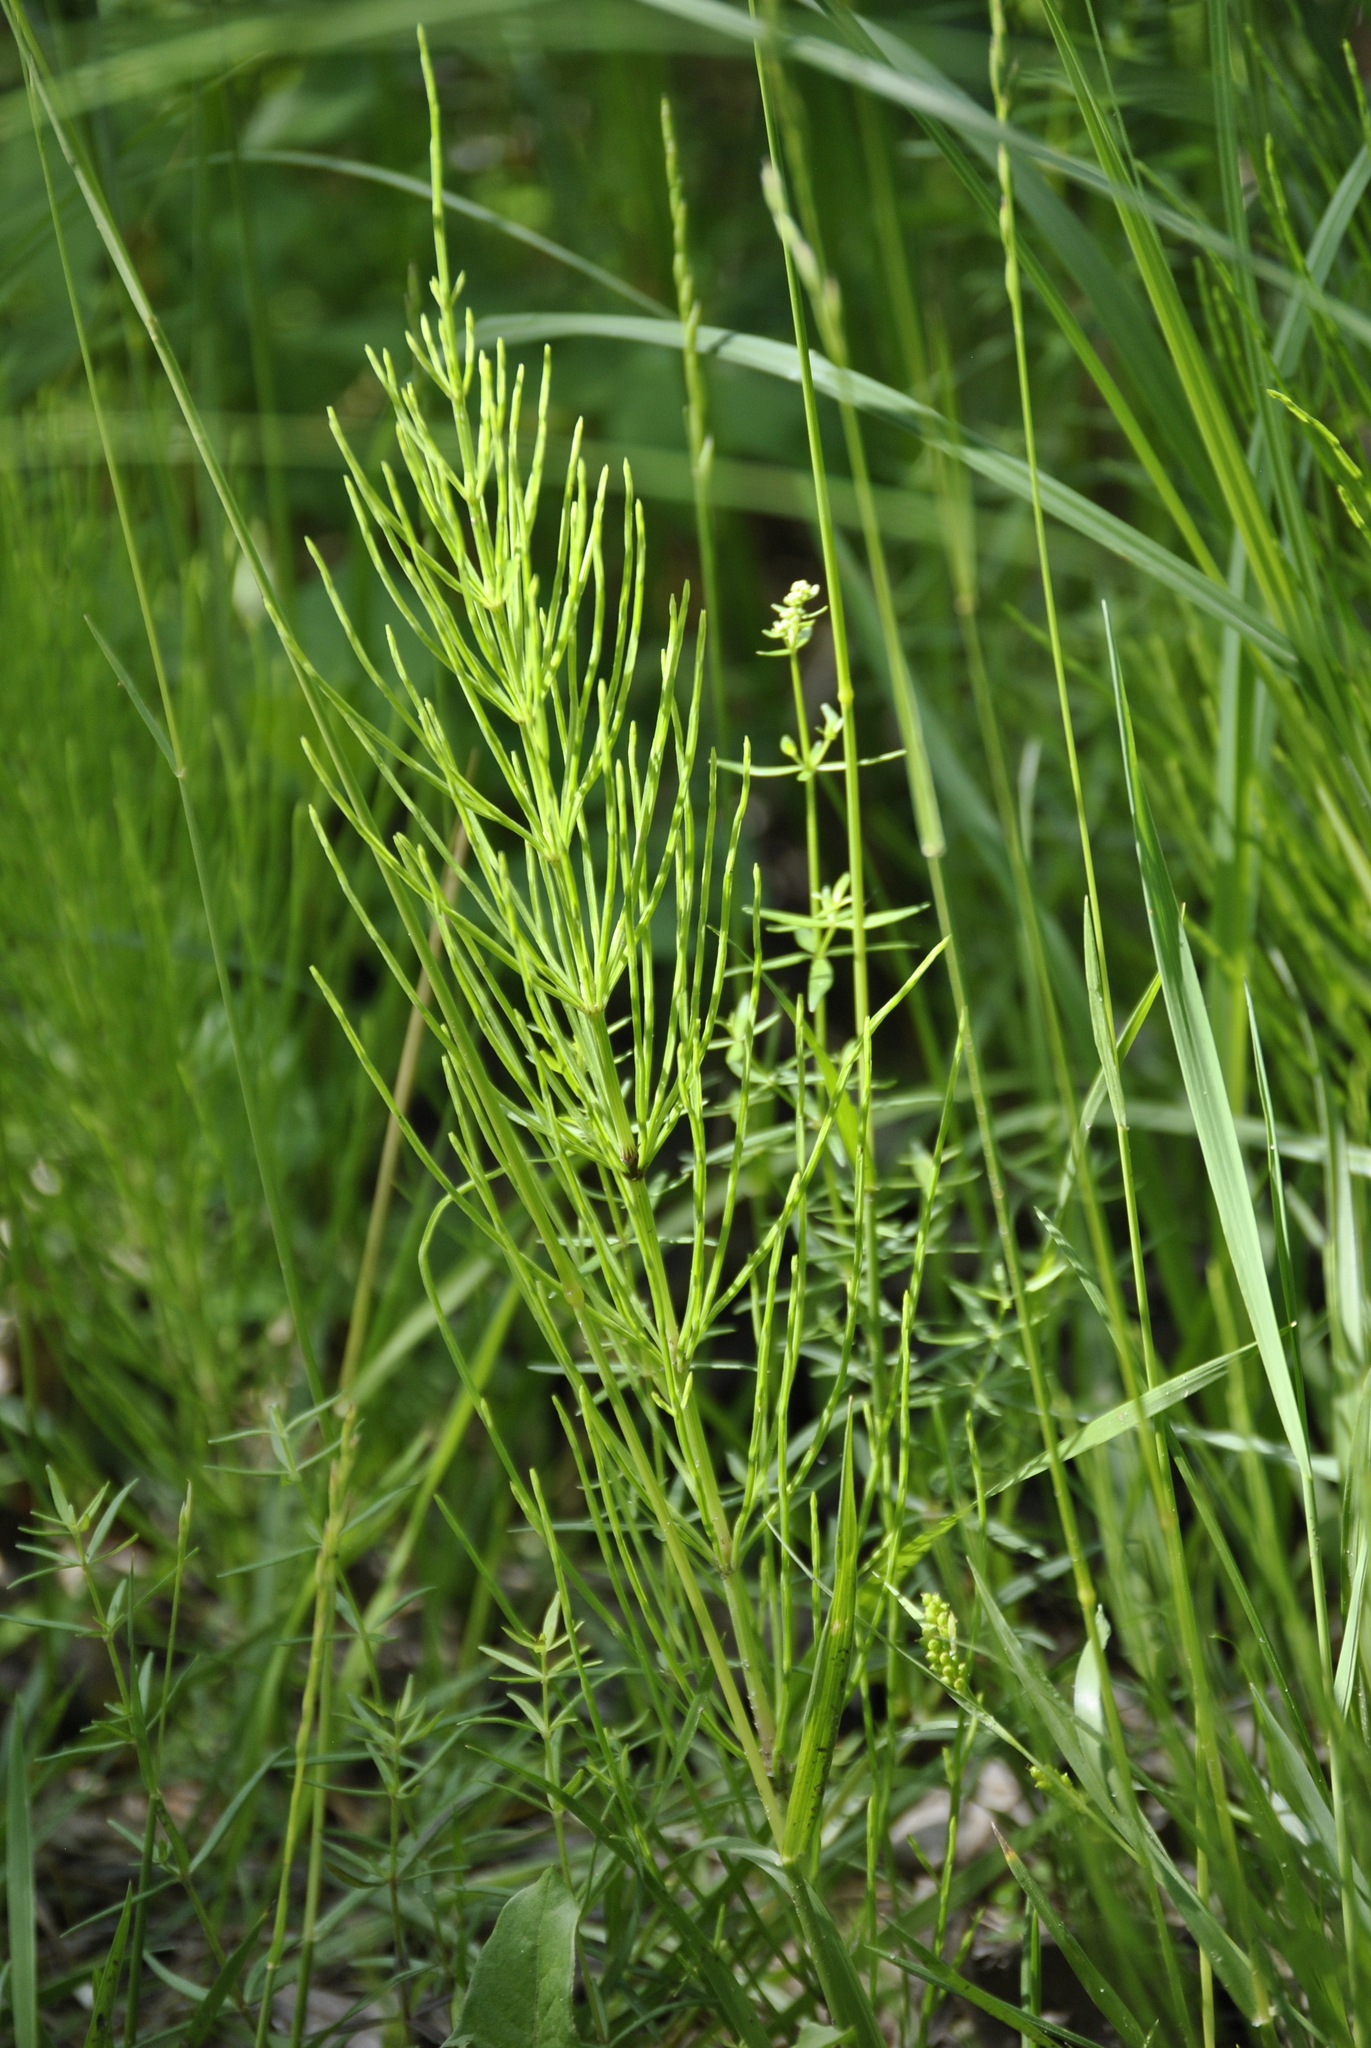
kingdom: Plantae
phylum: Tracheophyta
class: Polypodiopsida
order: Equisetales
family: Equisetaceae
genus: Equisetum
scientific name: Equisetum arvense
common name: Field horsetail
